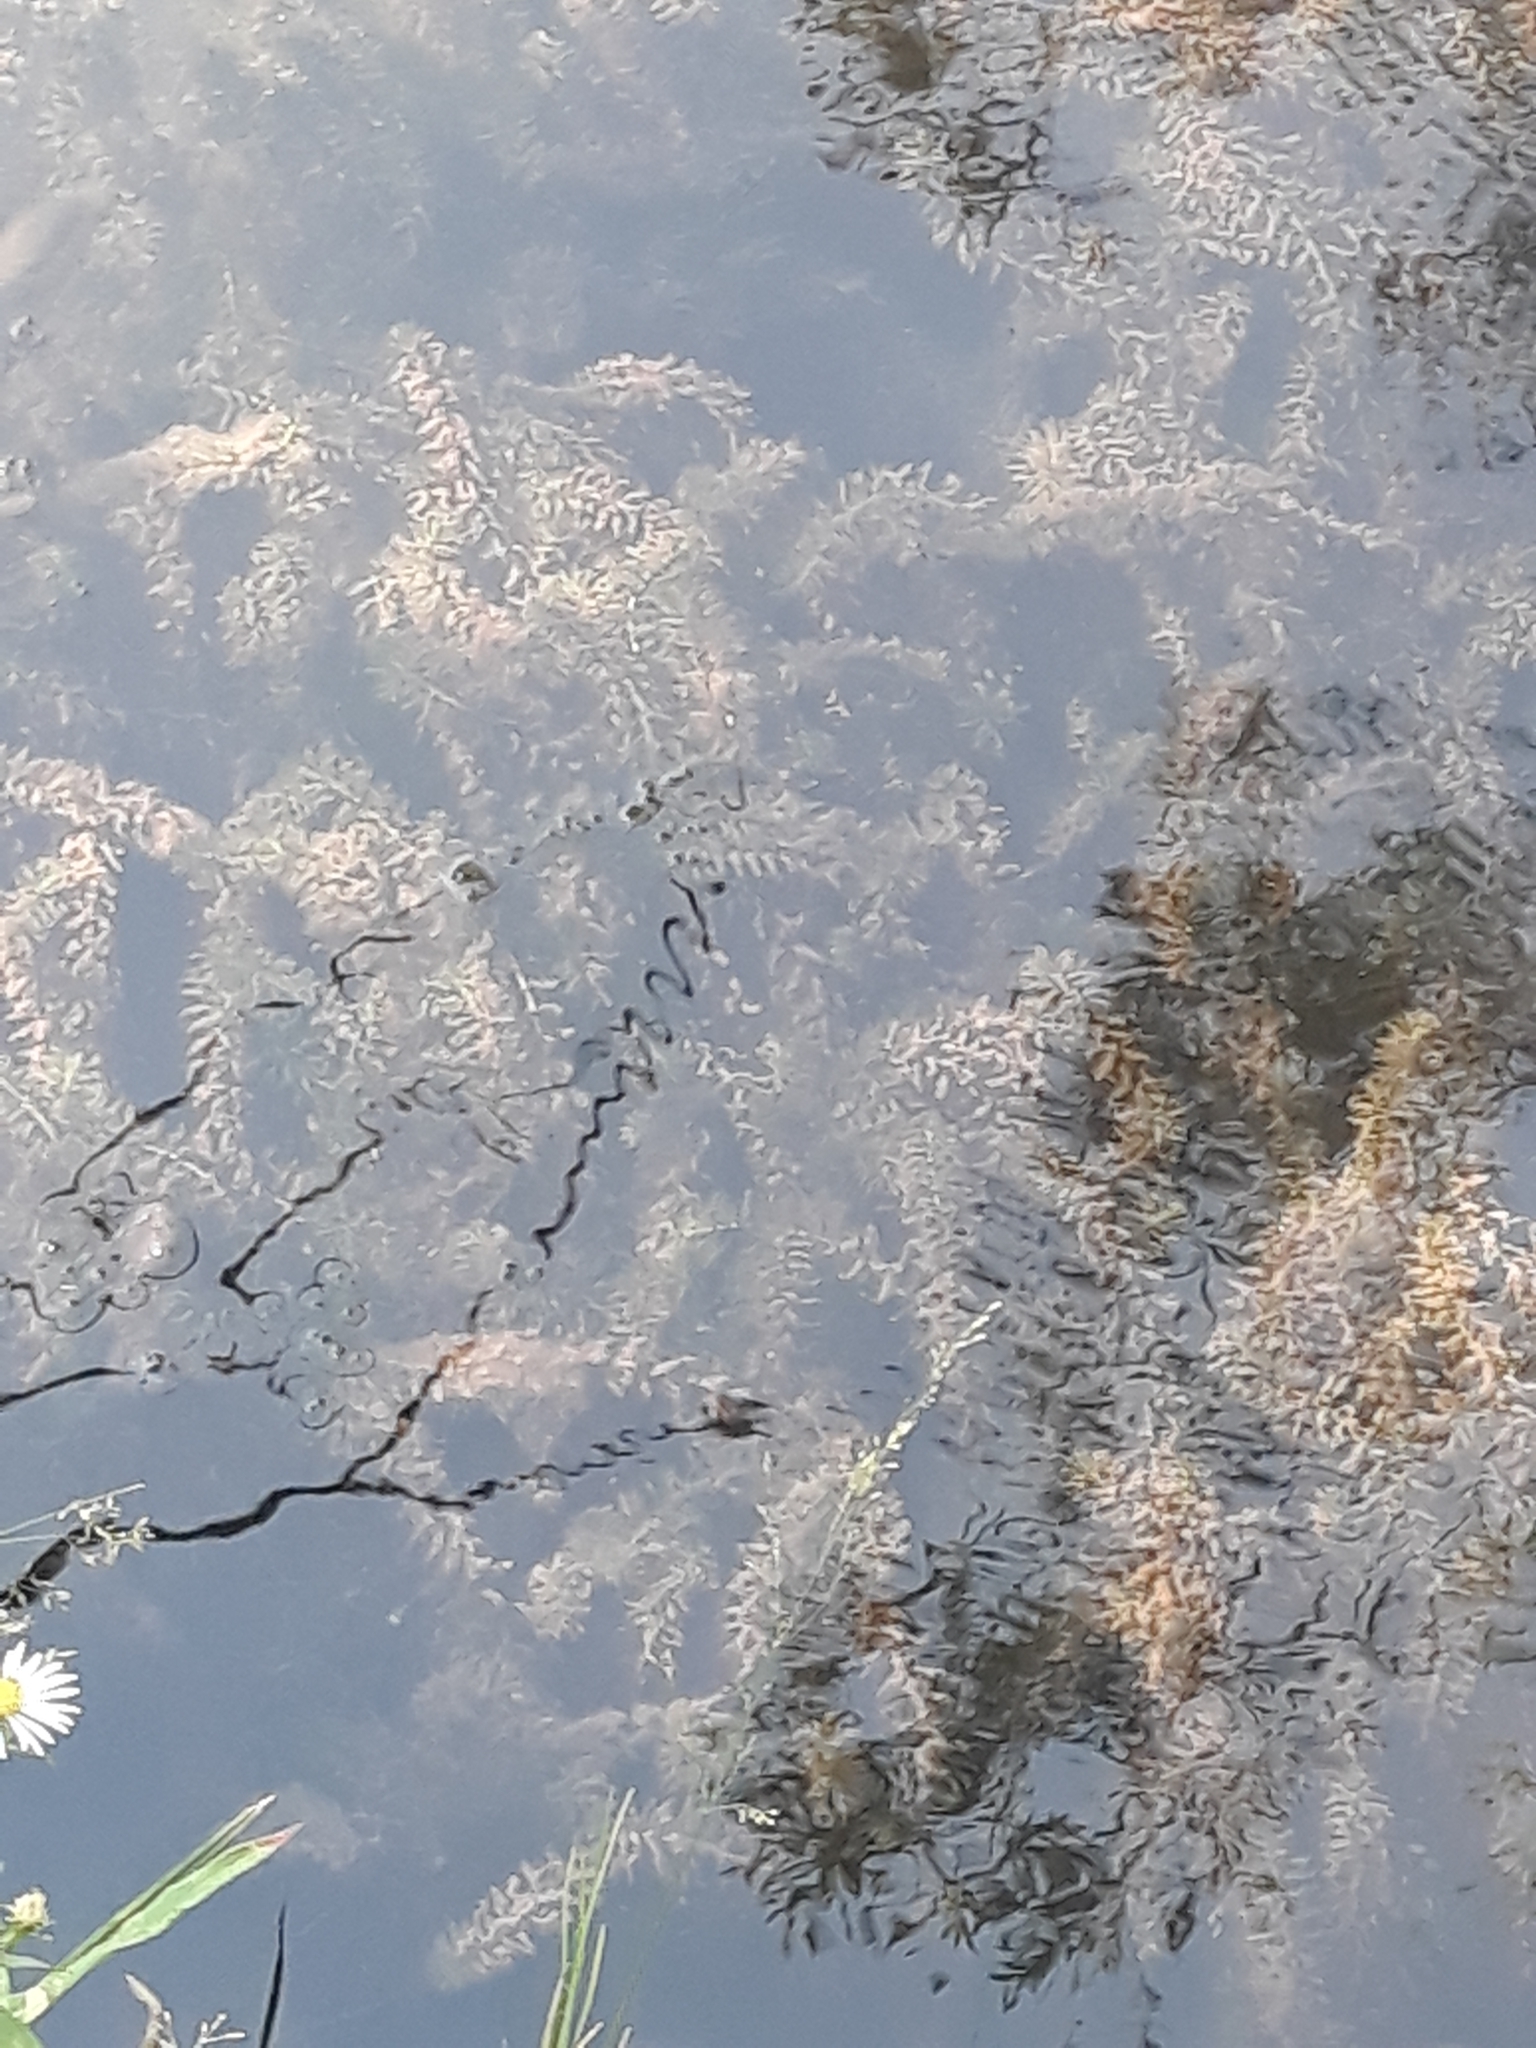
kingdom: Plantae
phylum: Tracheophyta
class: Liliopsida
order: Alismatales
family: Hydrocharitaceae
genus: Elodea
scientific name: Elodea canadensis
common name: Canadian waterweed
